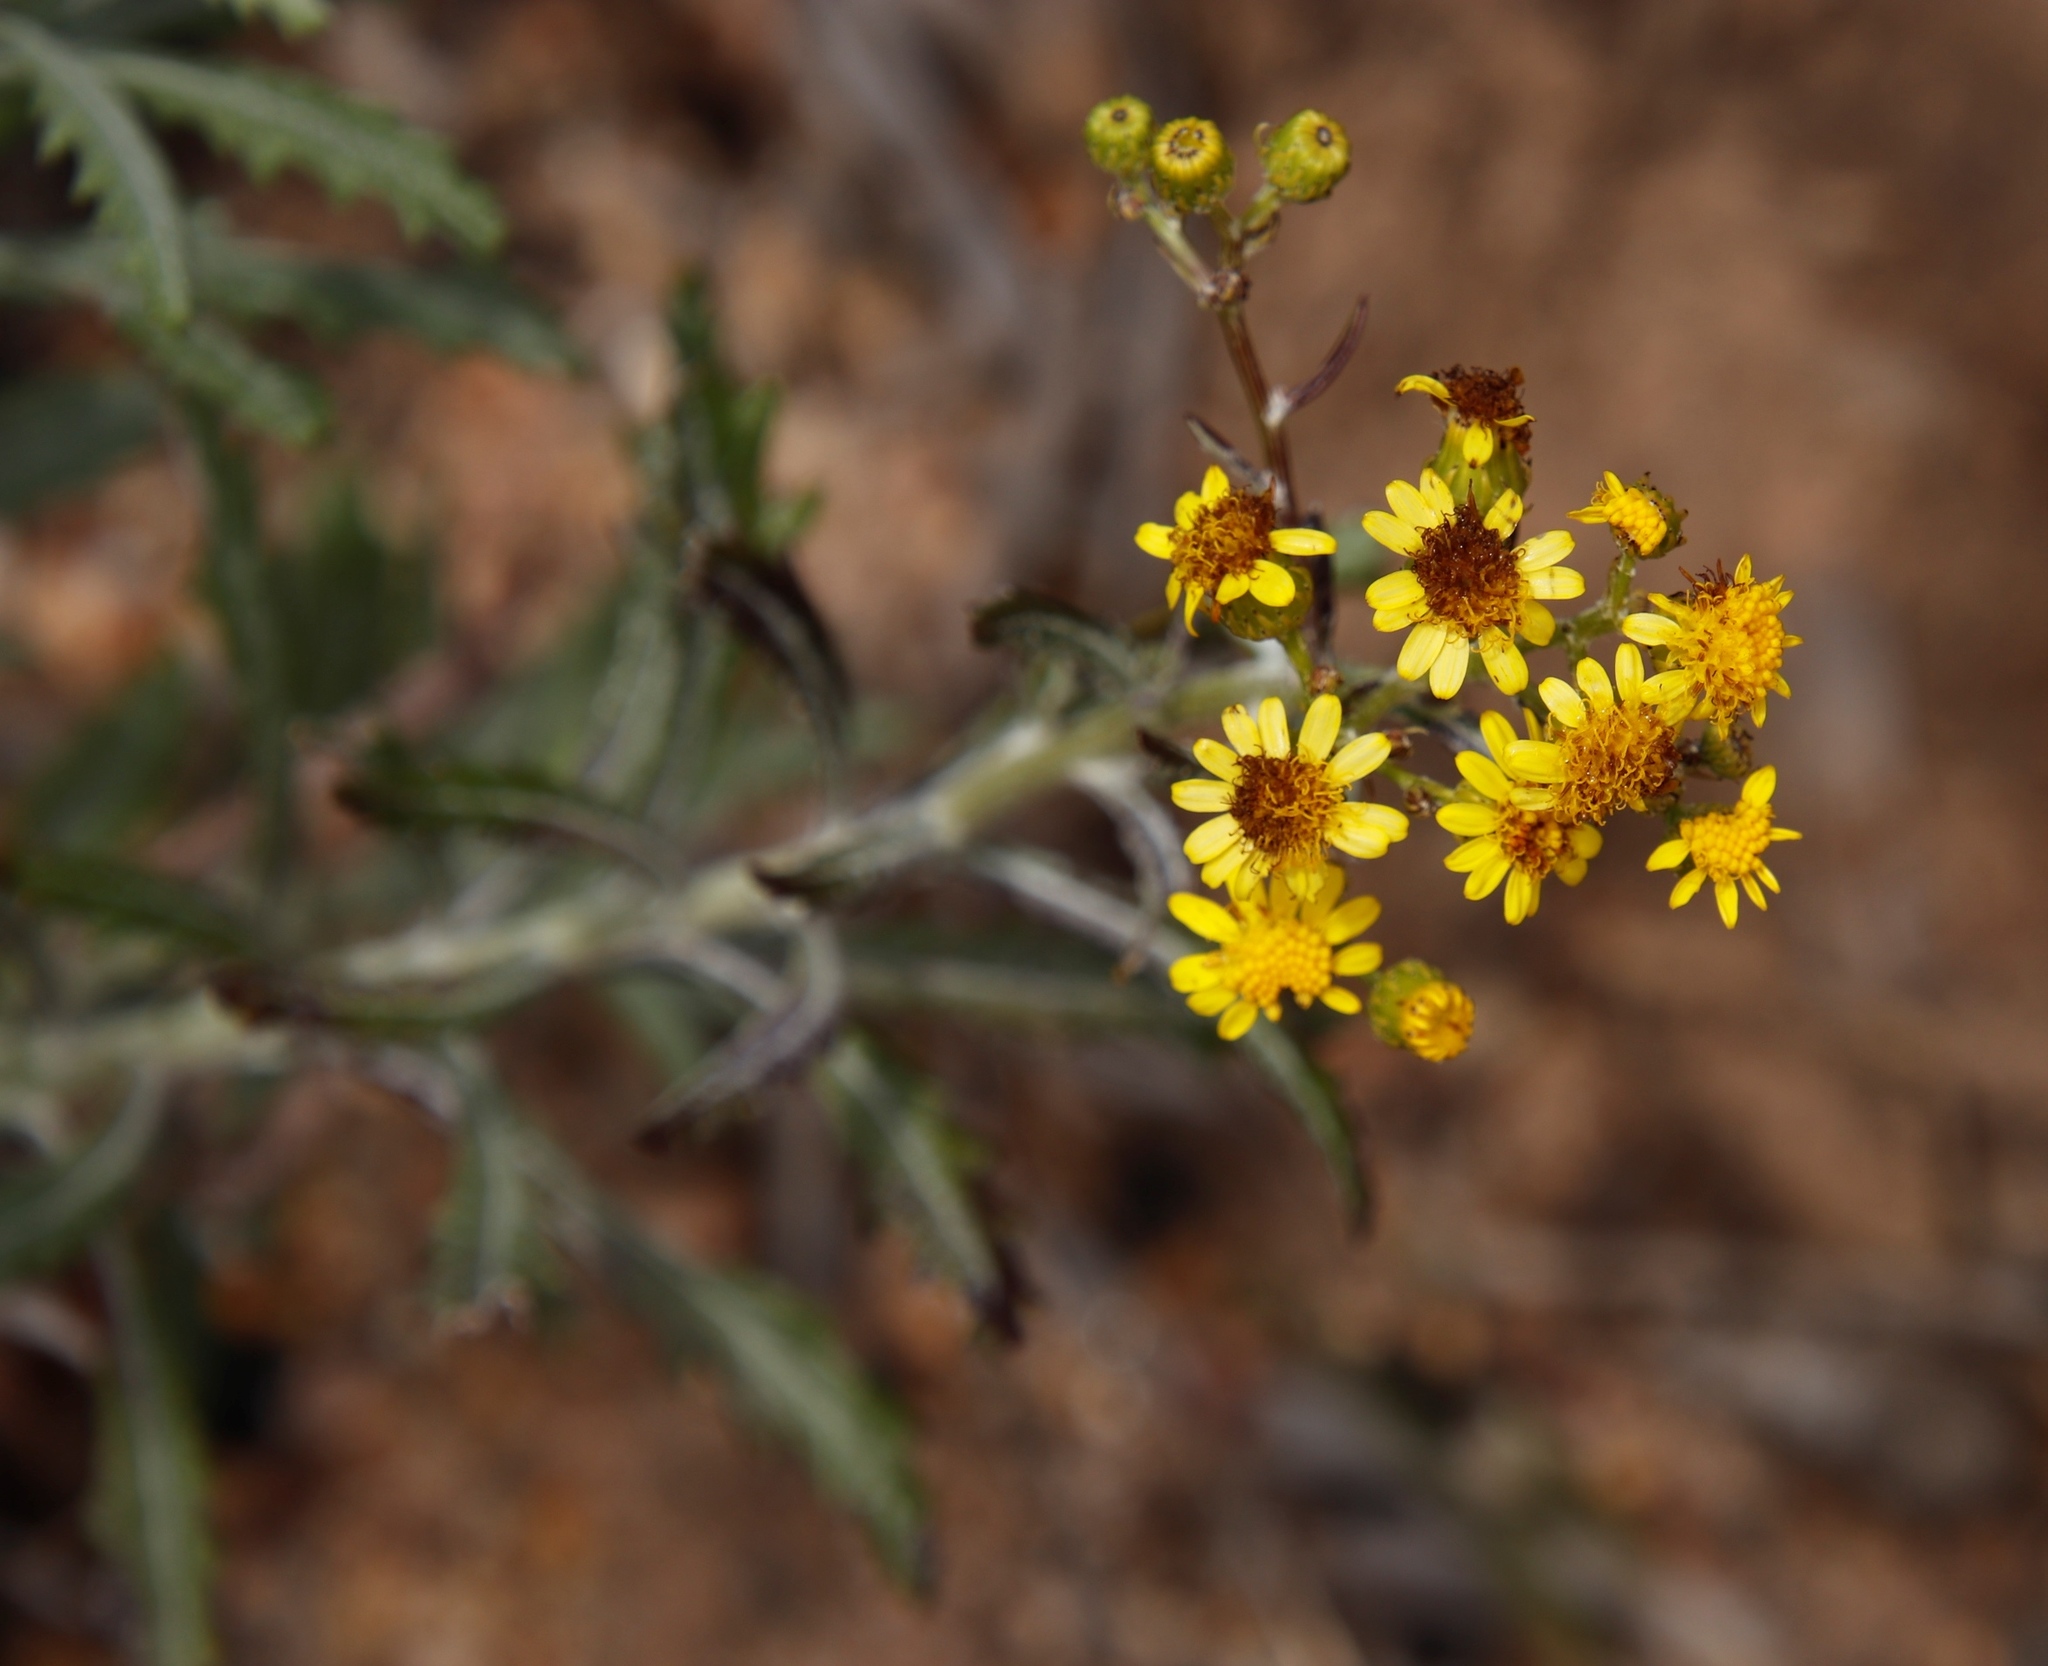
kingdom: Plantae
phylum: Tracheophyta
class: Magnoliopsida
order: Asterales
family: Asteraceae
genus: Senecio
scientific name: Senecio pterophorus
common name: Shoddy ragwort
